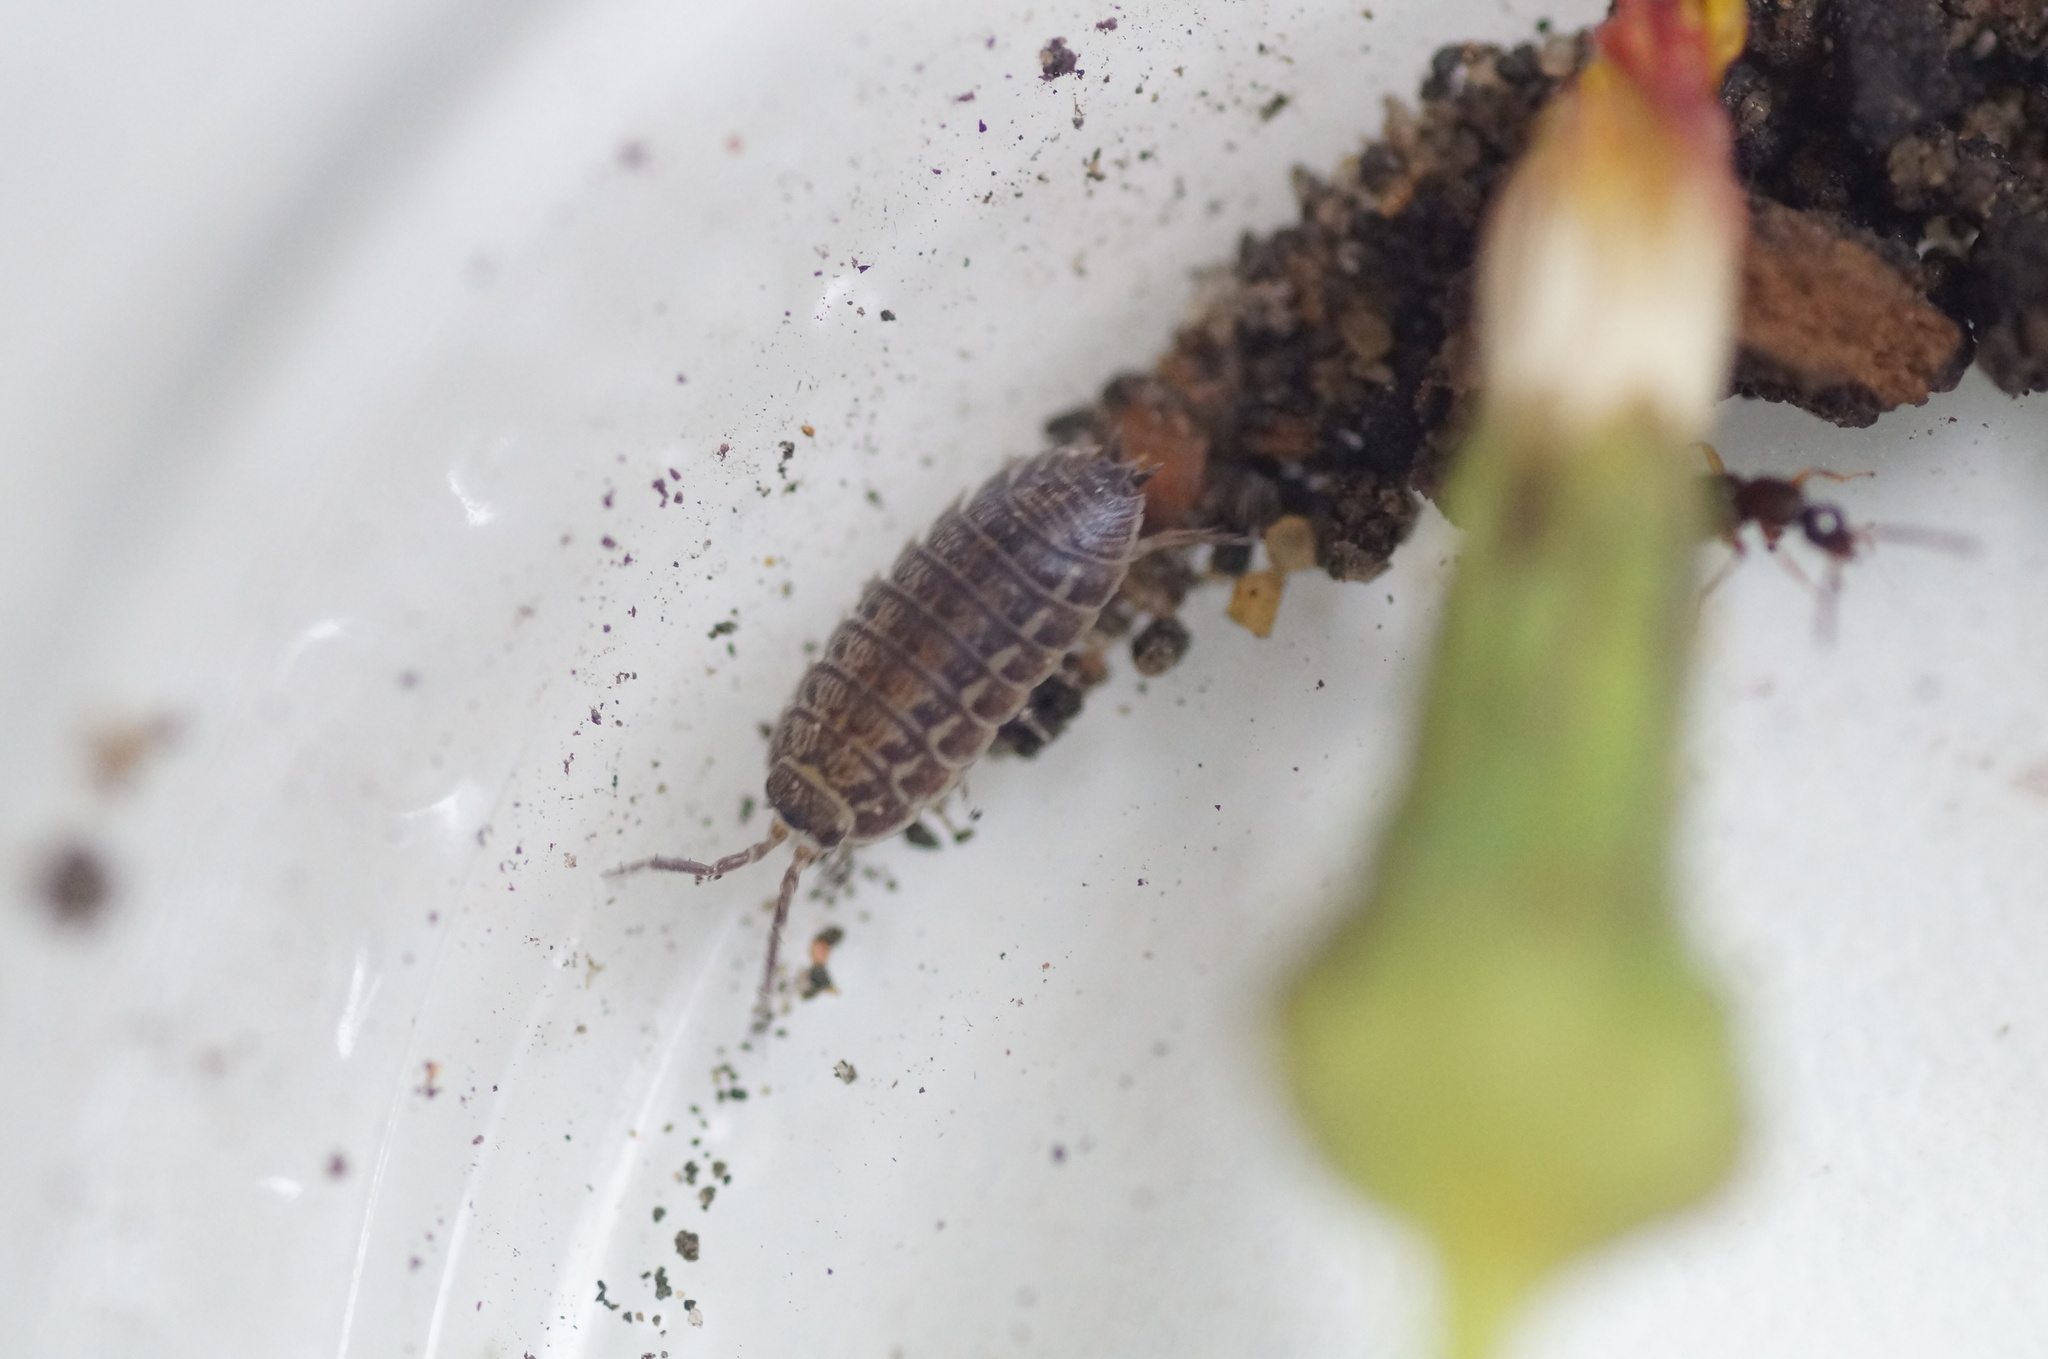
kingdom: Animalia
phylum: Arthropoda
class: Malacostraca
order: Isopoda
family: Trachelipodidae
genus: Trachelipus
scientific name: Trachelipus rathkii
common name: Isopod
